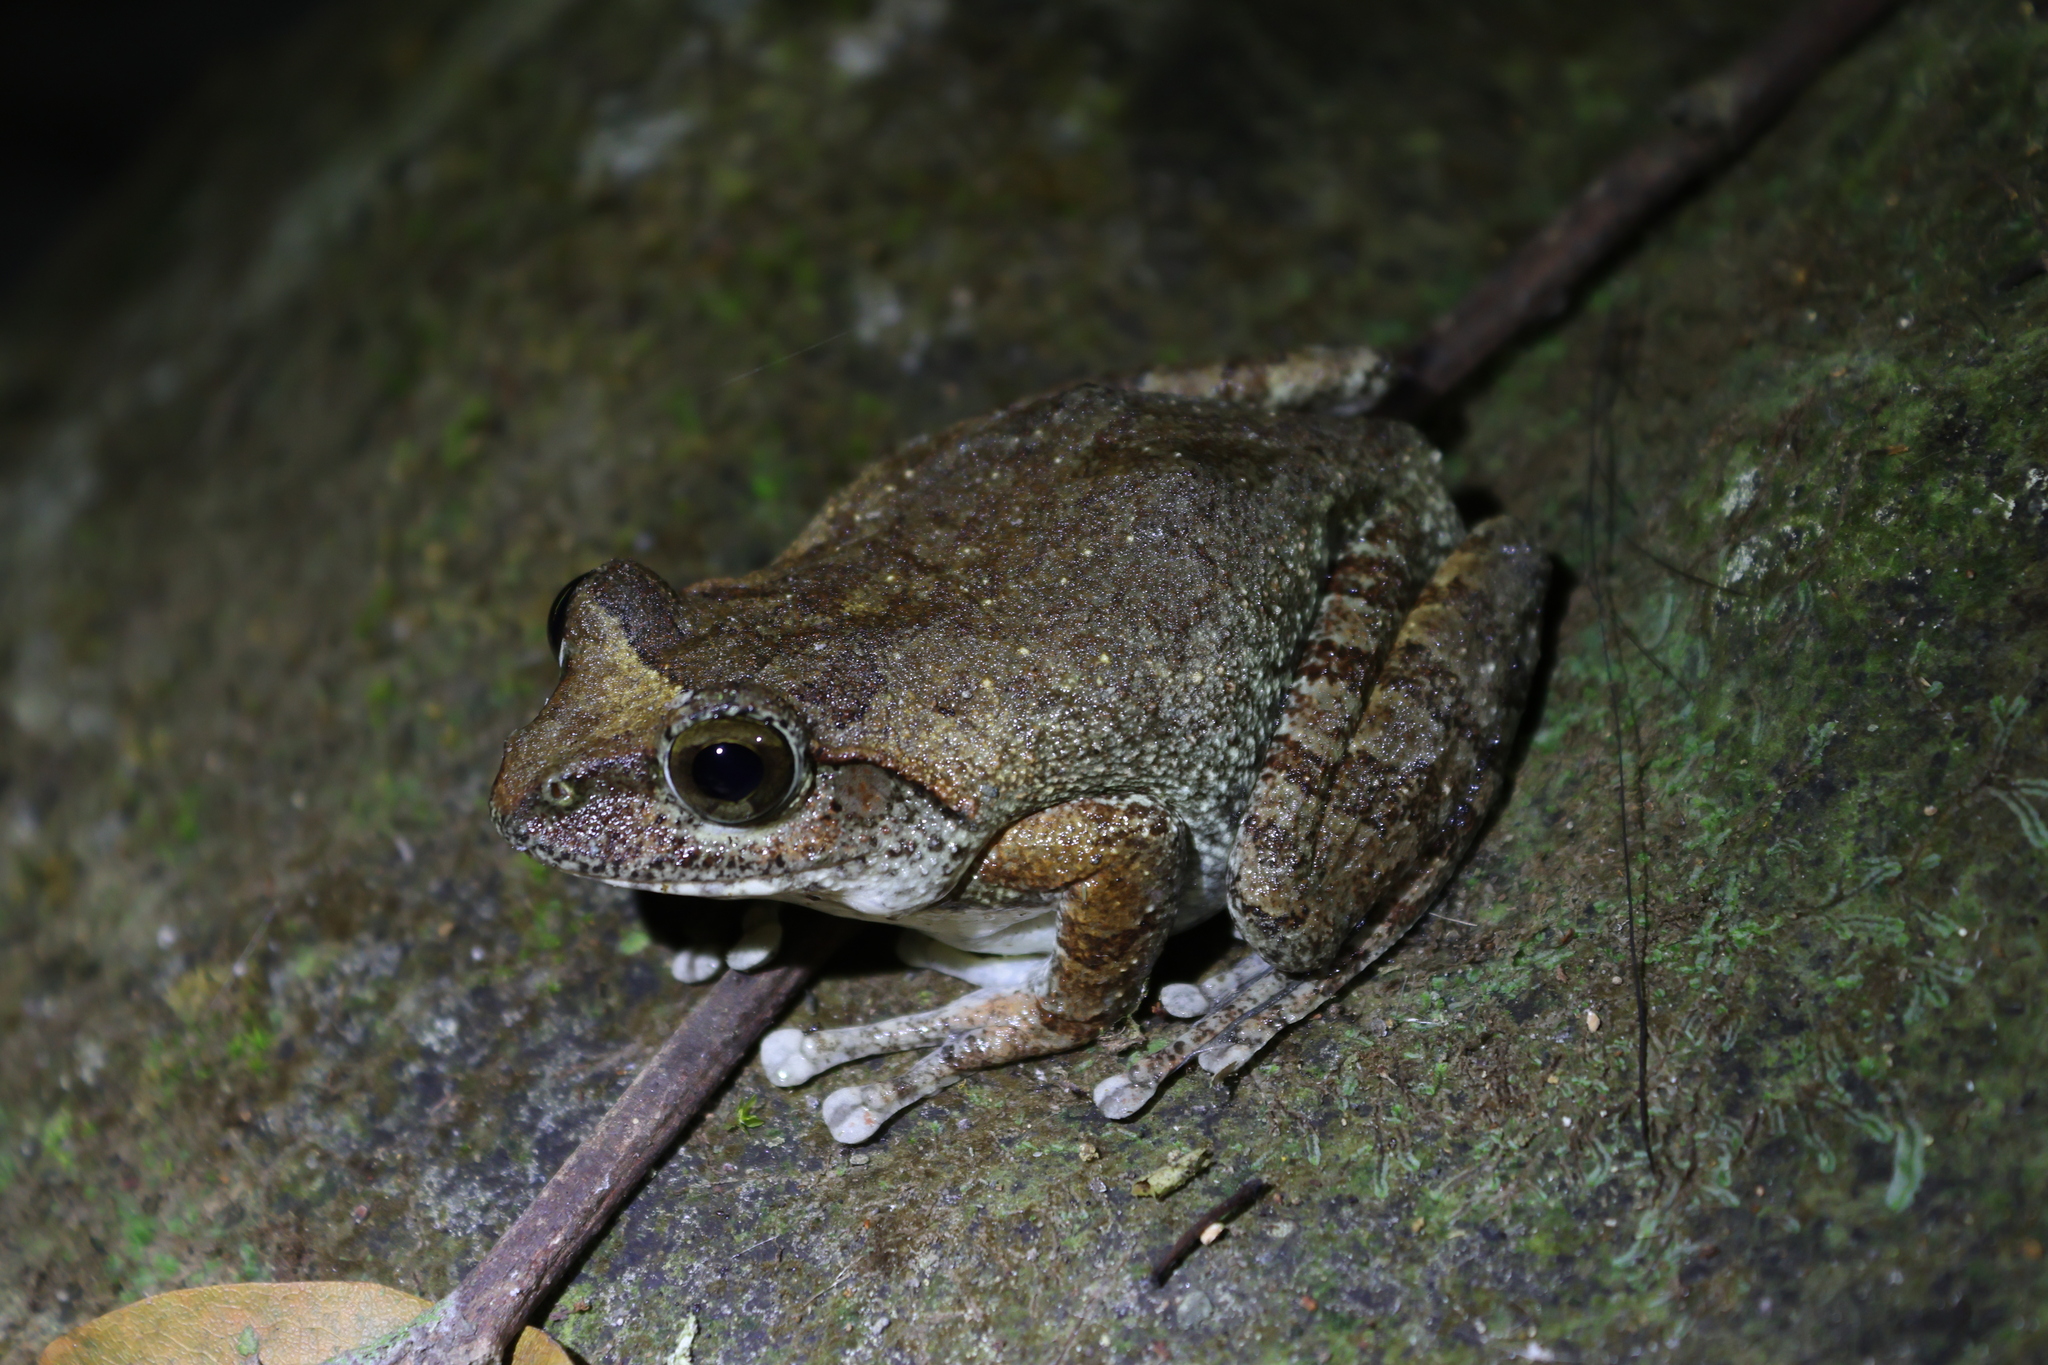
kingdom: Animalia
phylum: Chordata
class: Amphibia
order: Anura
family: Rhacophoridae
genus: Buergeria
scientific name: Buergeria robusta
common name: Brown treefrog
